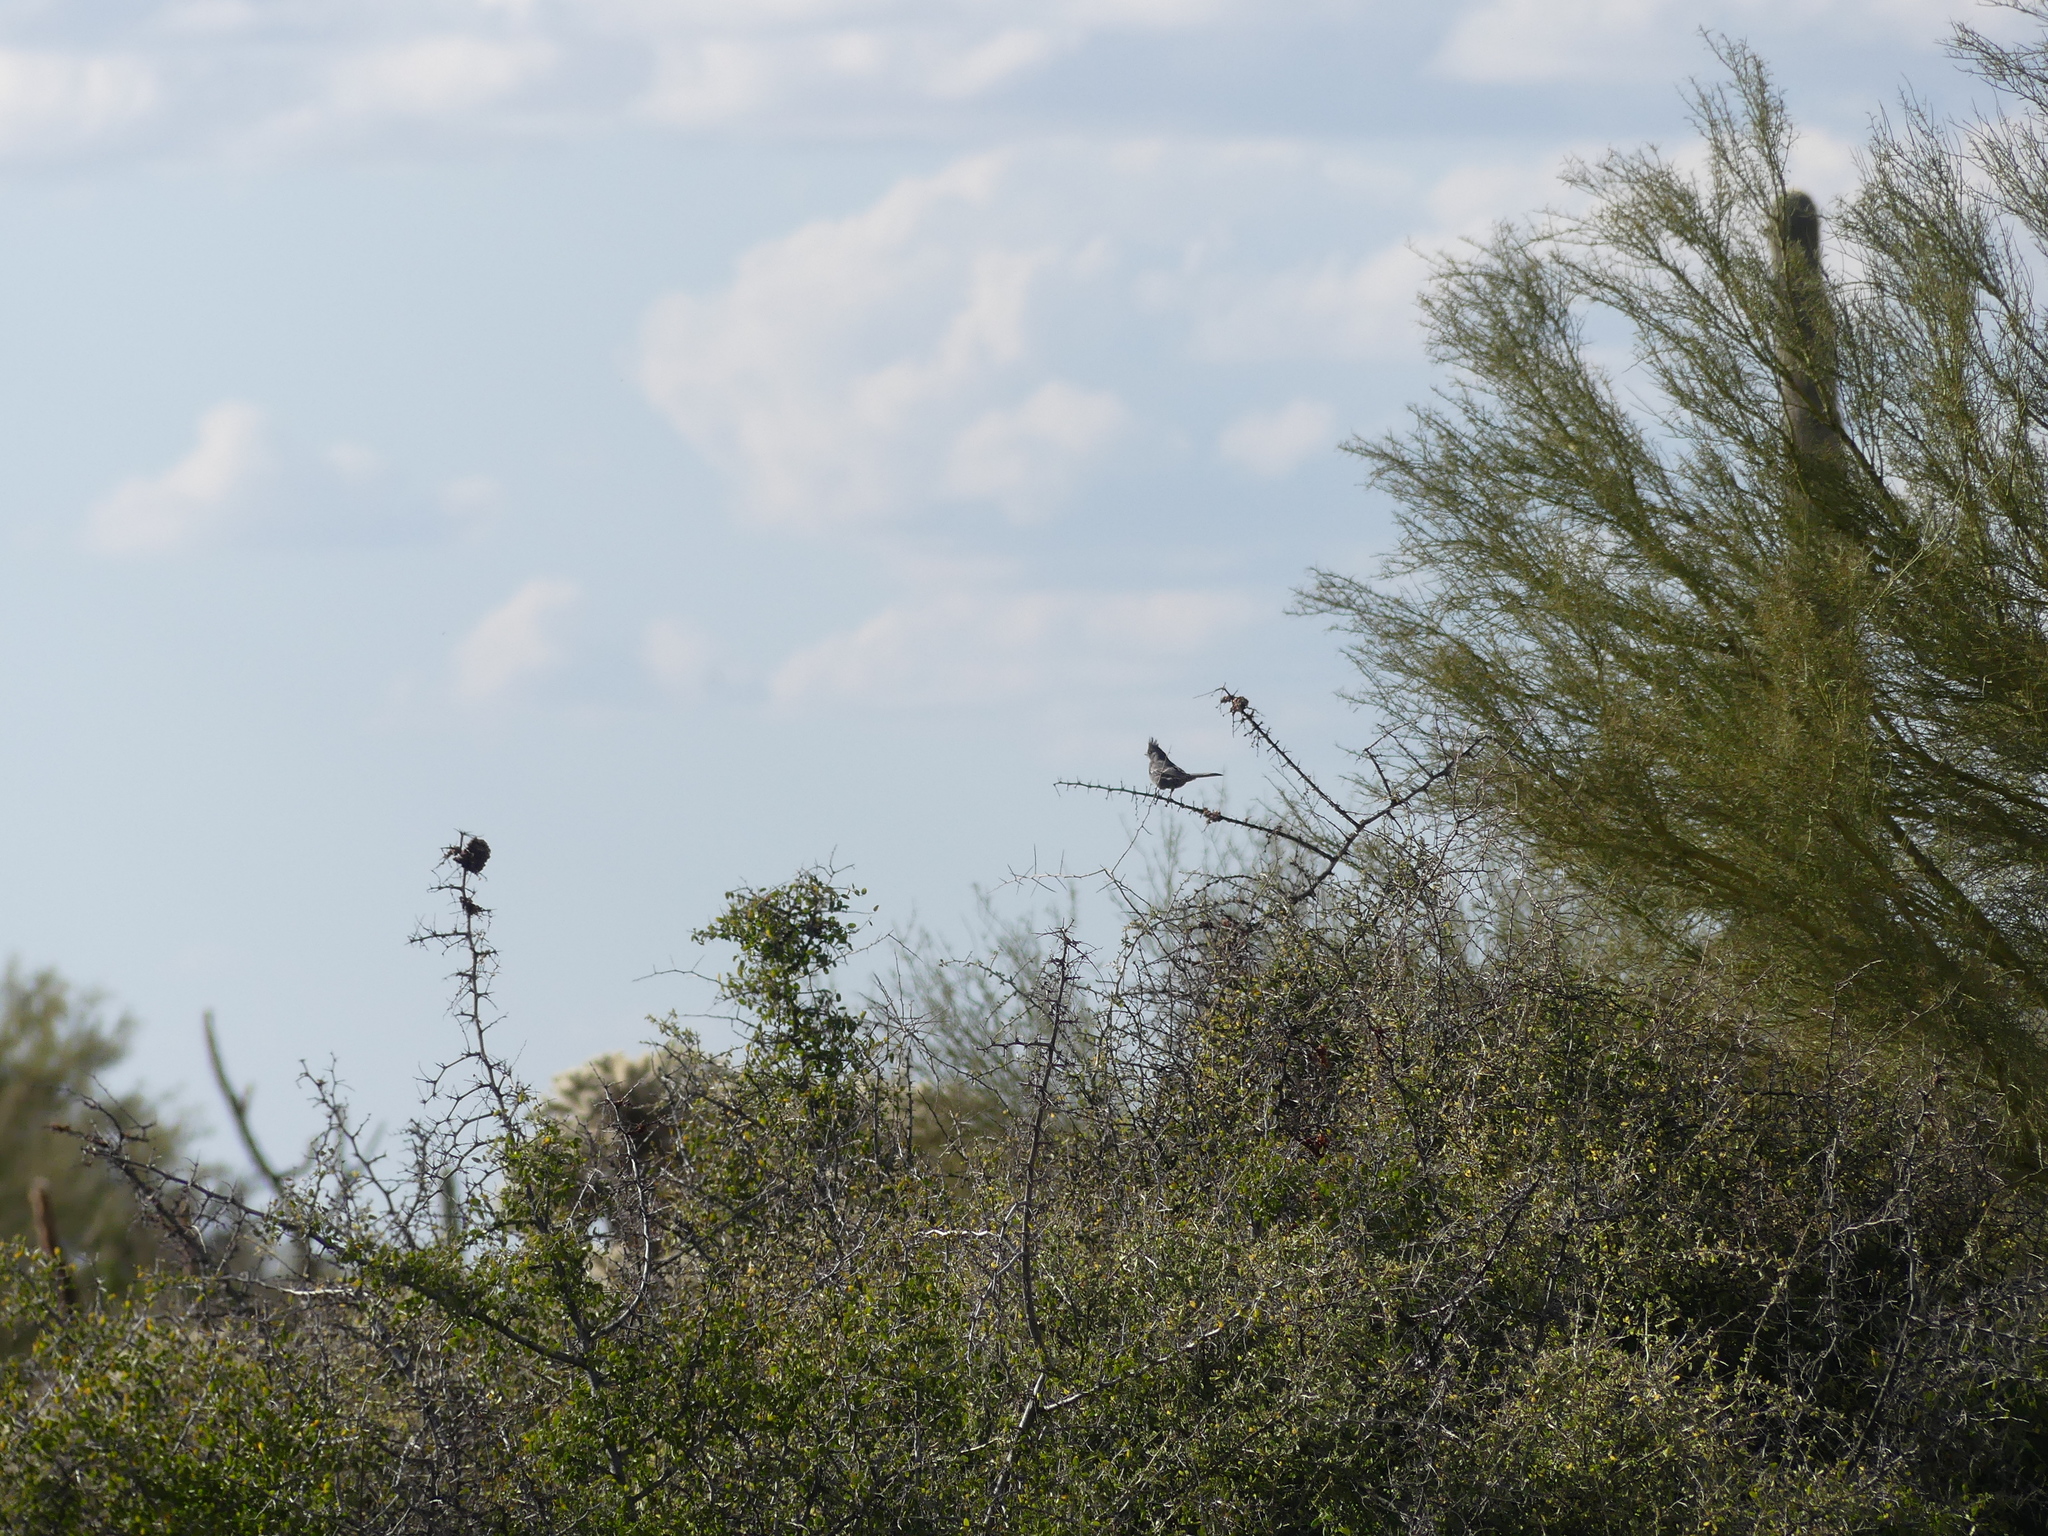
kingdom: Animalia
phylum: Chordata
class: Aves
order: Passeriformes
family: Ptilogonatidae
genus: Phainopepla
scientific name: Phainopepla nitens
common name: Phainopepla
